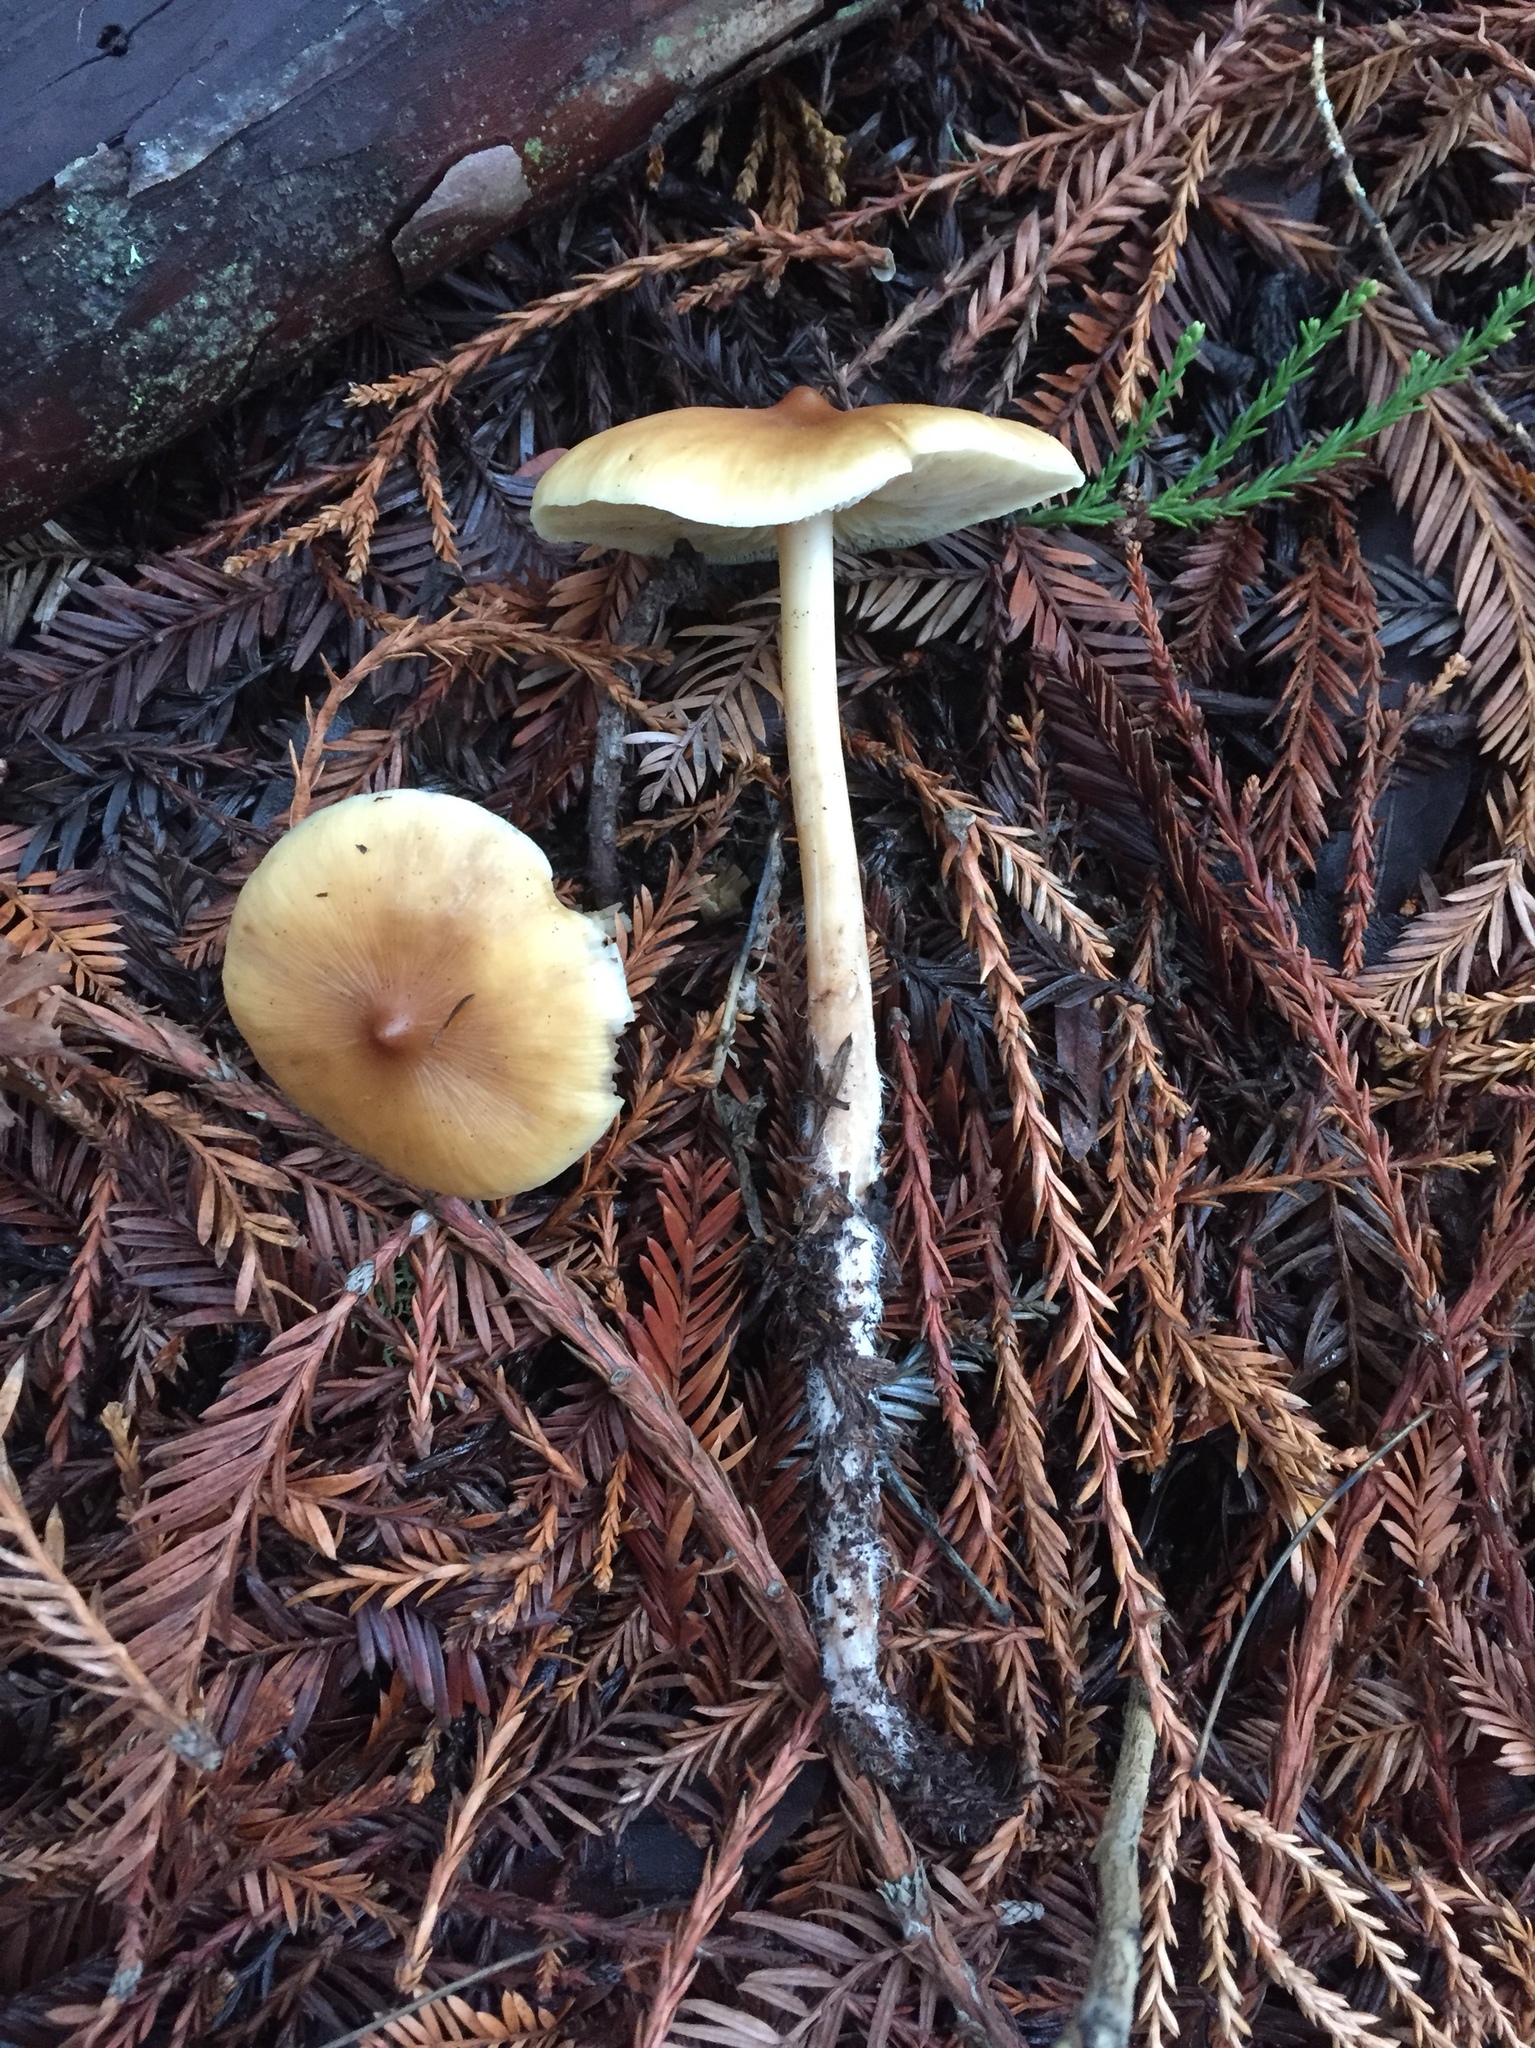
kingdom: Fungi
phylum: Basidiomycota
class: Agaricomycetes
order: Agaricales
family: Tricholomataceae
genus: Caulorhiza
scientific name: Caulorhiza umbonata
